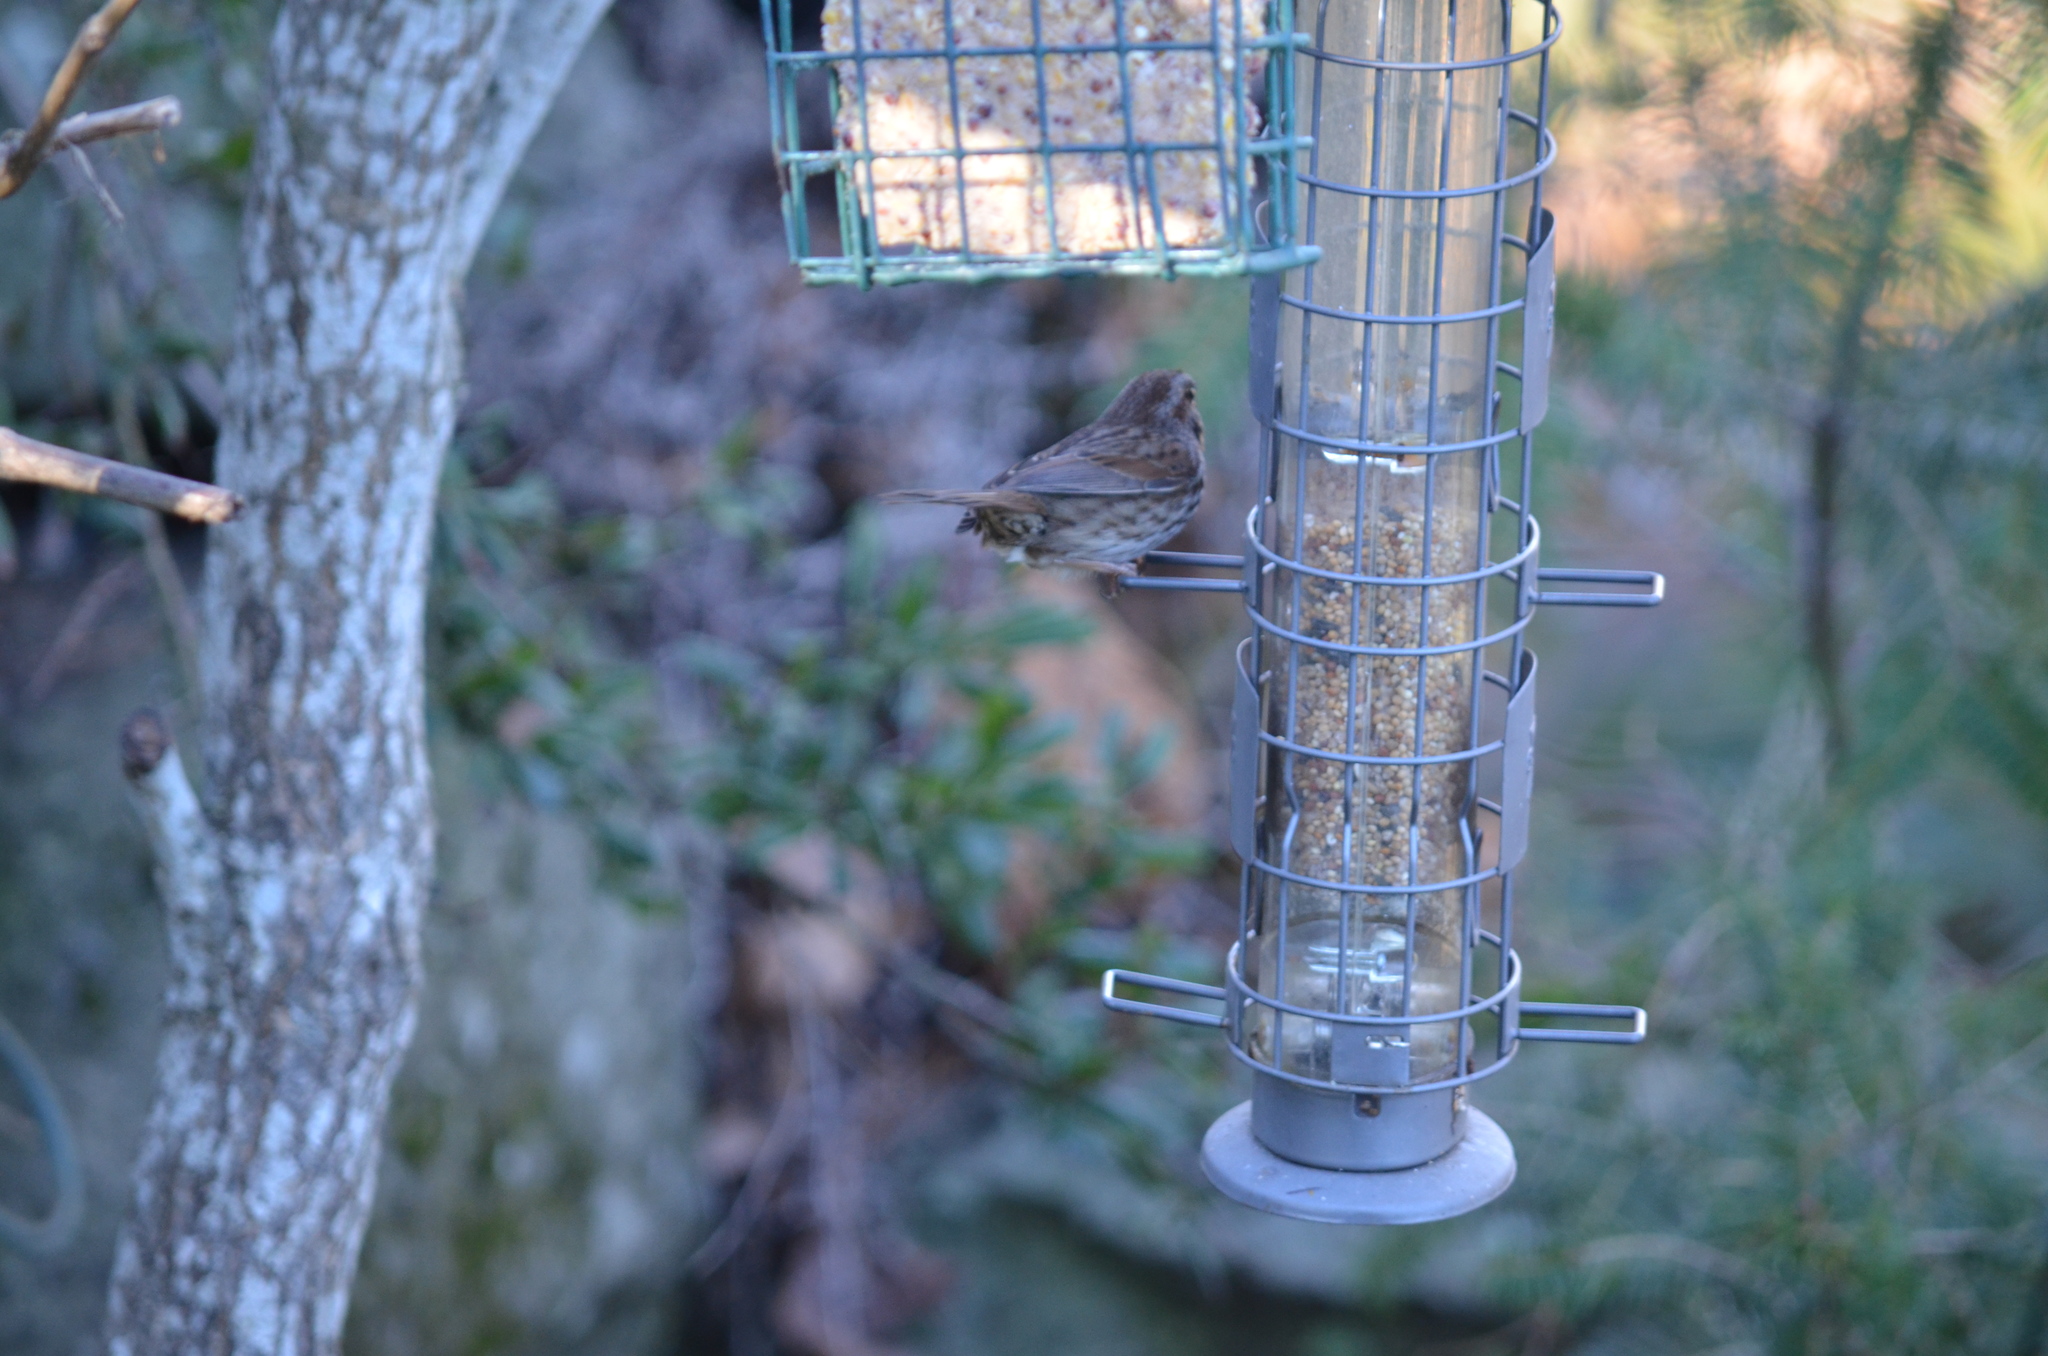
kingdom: Animalia
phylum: Chordata
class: Aves
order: Passeriformes
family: Passerellidae
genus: Melospiza
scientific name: Melospiza melodia
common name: Song sparrow
